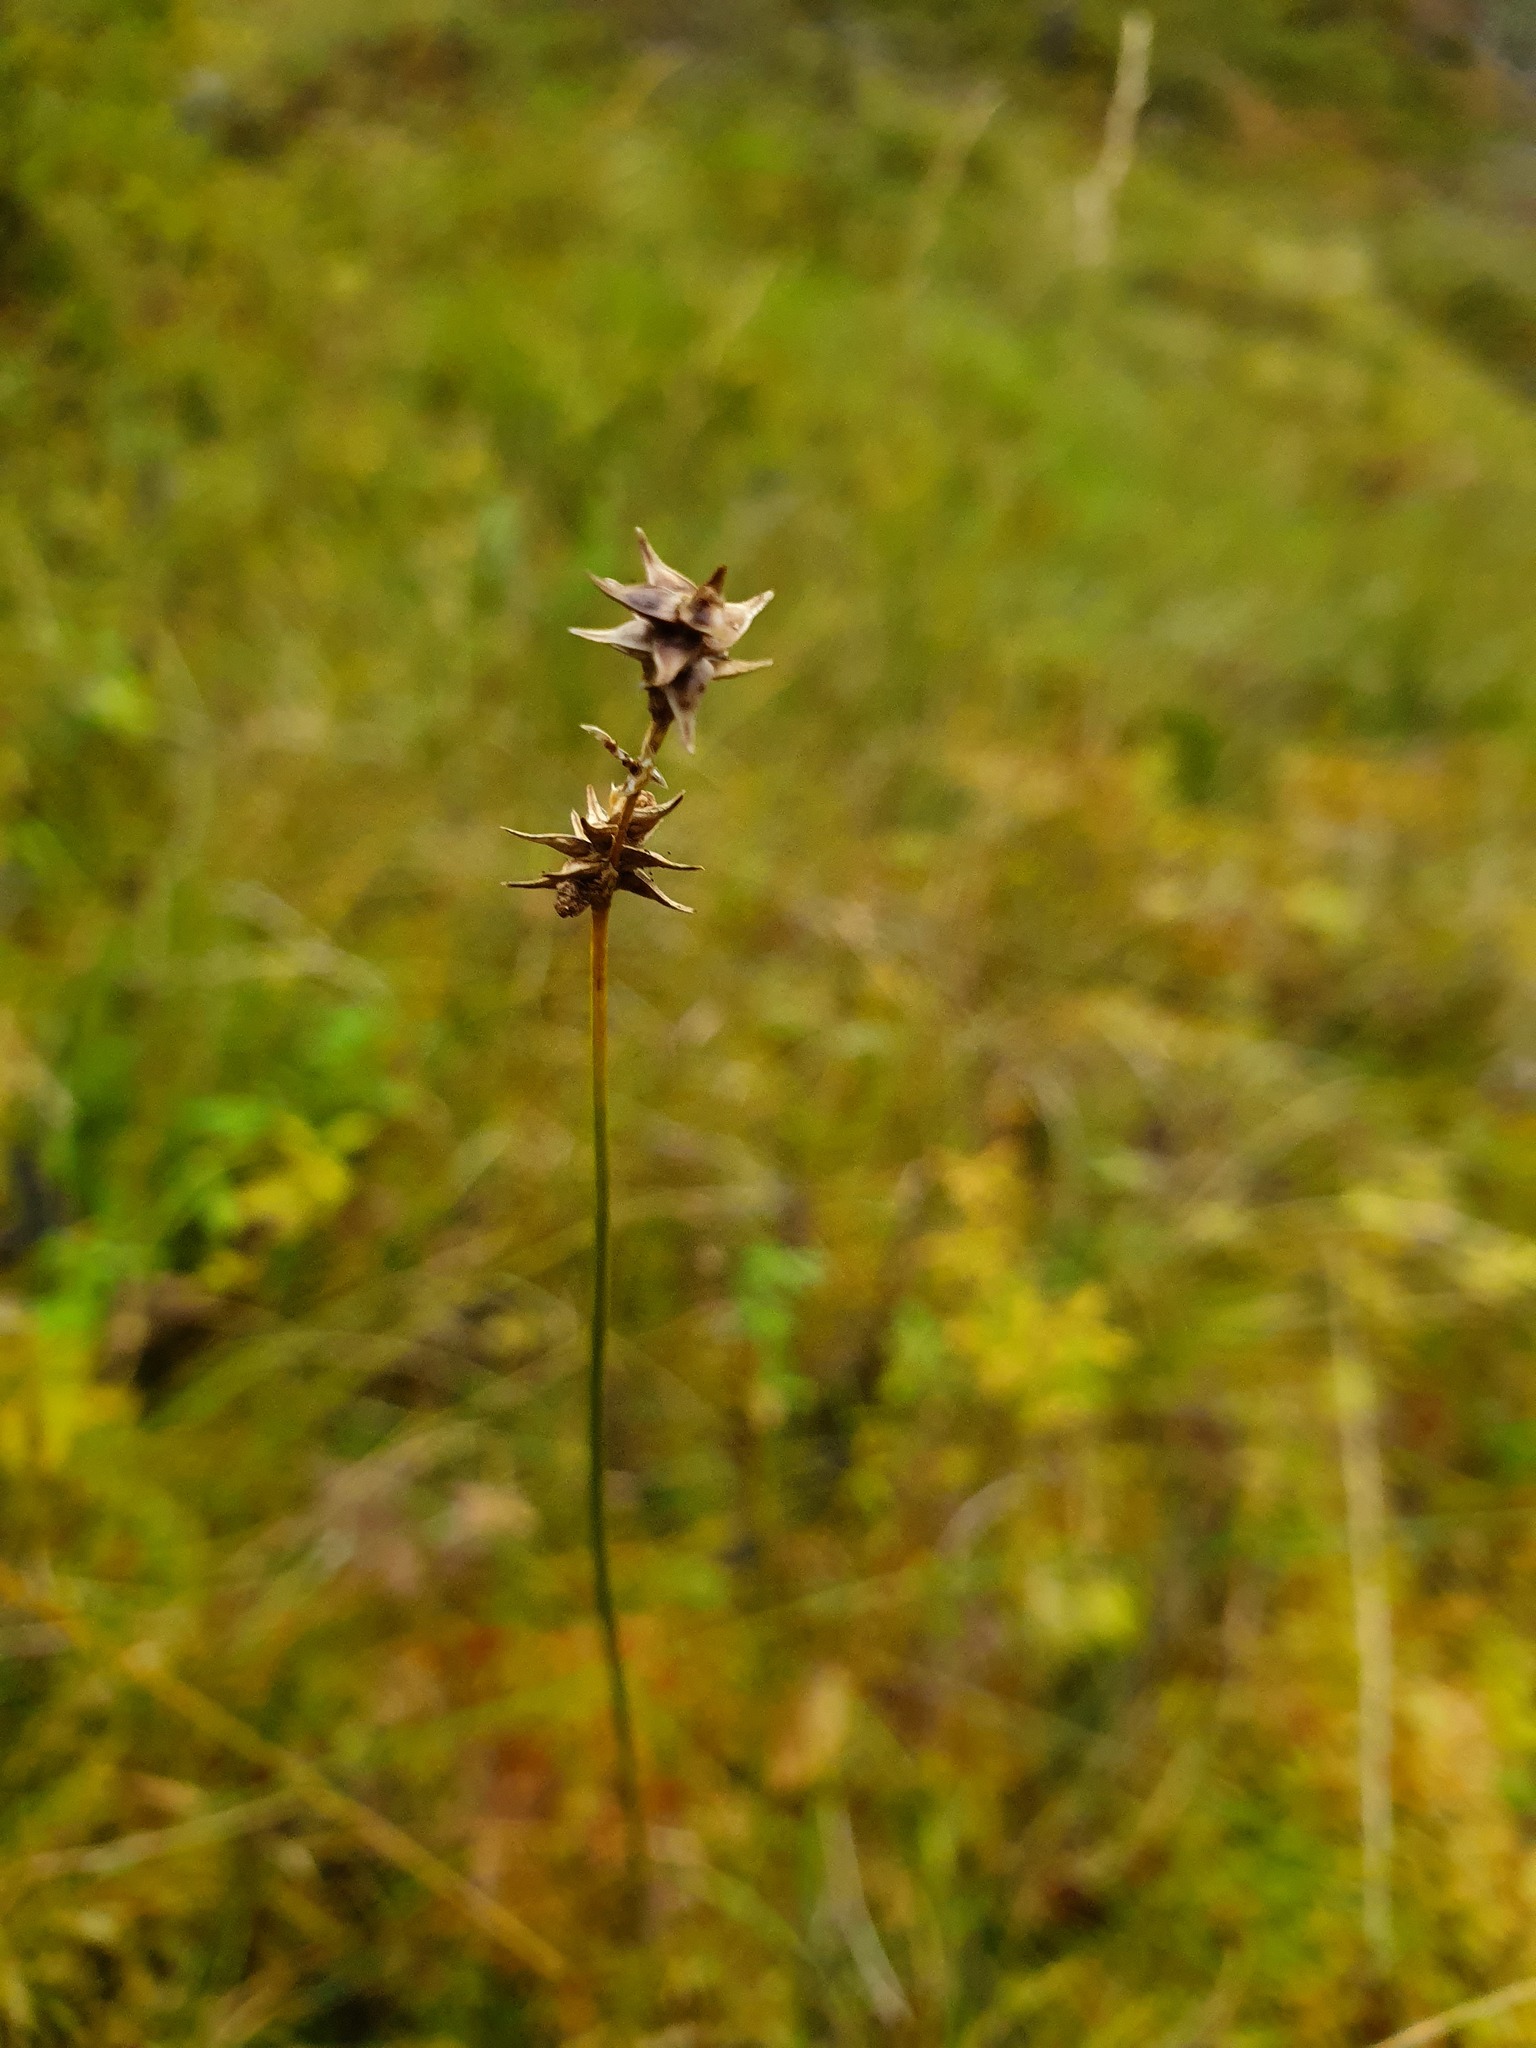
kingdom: Plantae
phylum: Tracheophyta
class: Liliopsida
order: Poales
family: Cyperaceae
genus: Carex
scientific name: Carex echinata
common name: Star sedge
